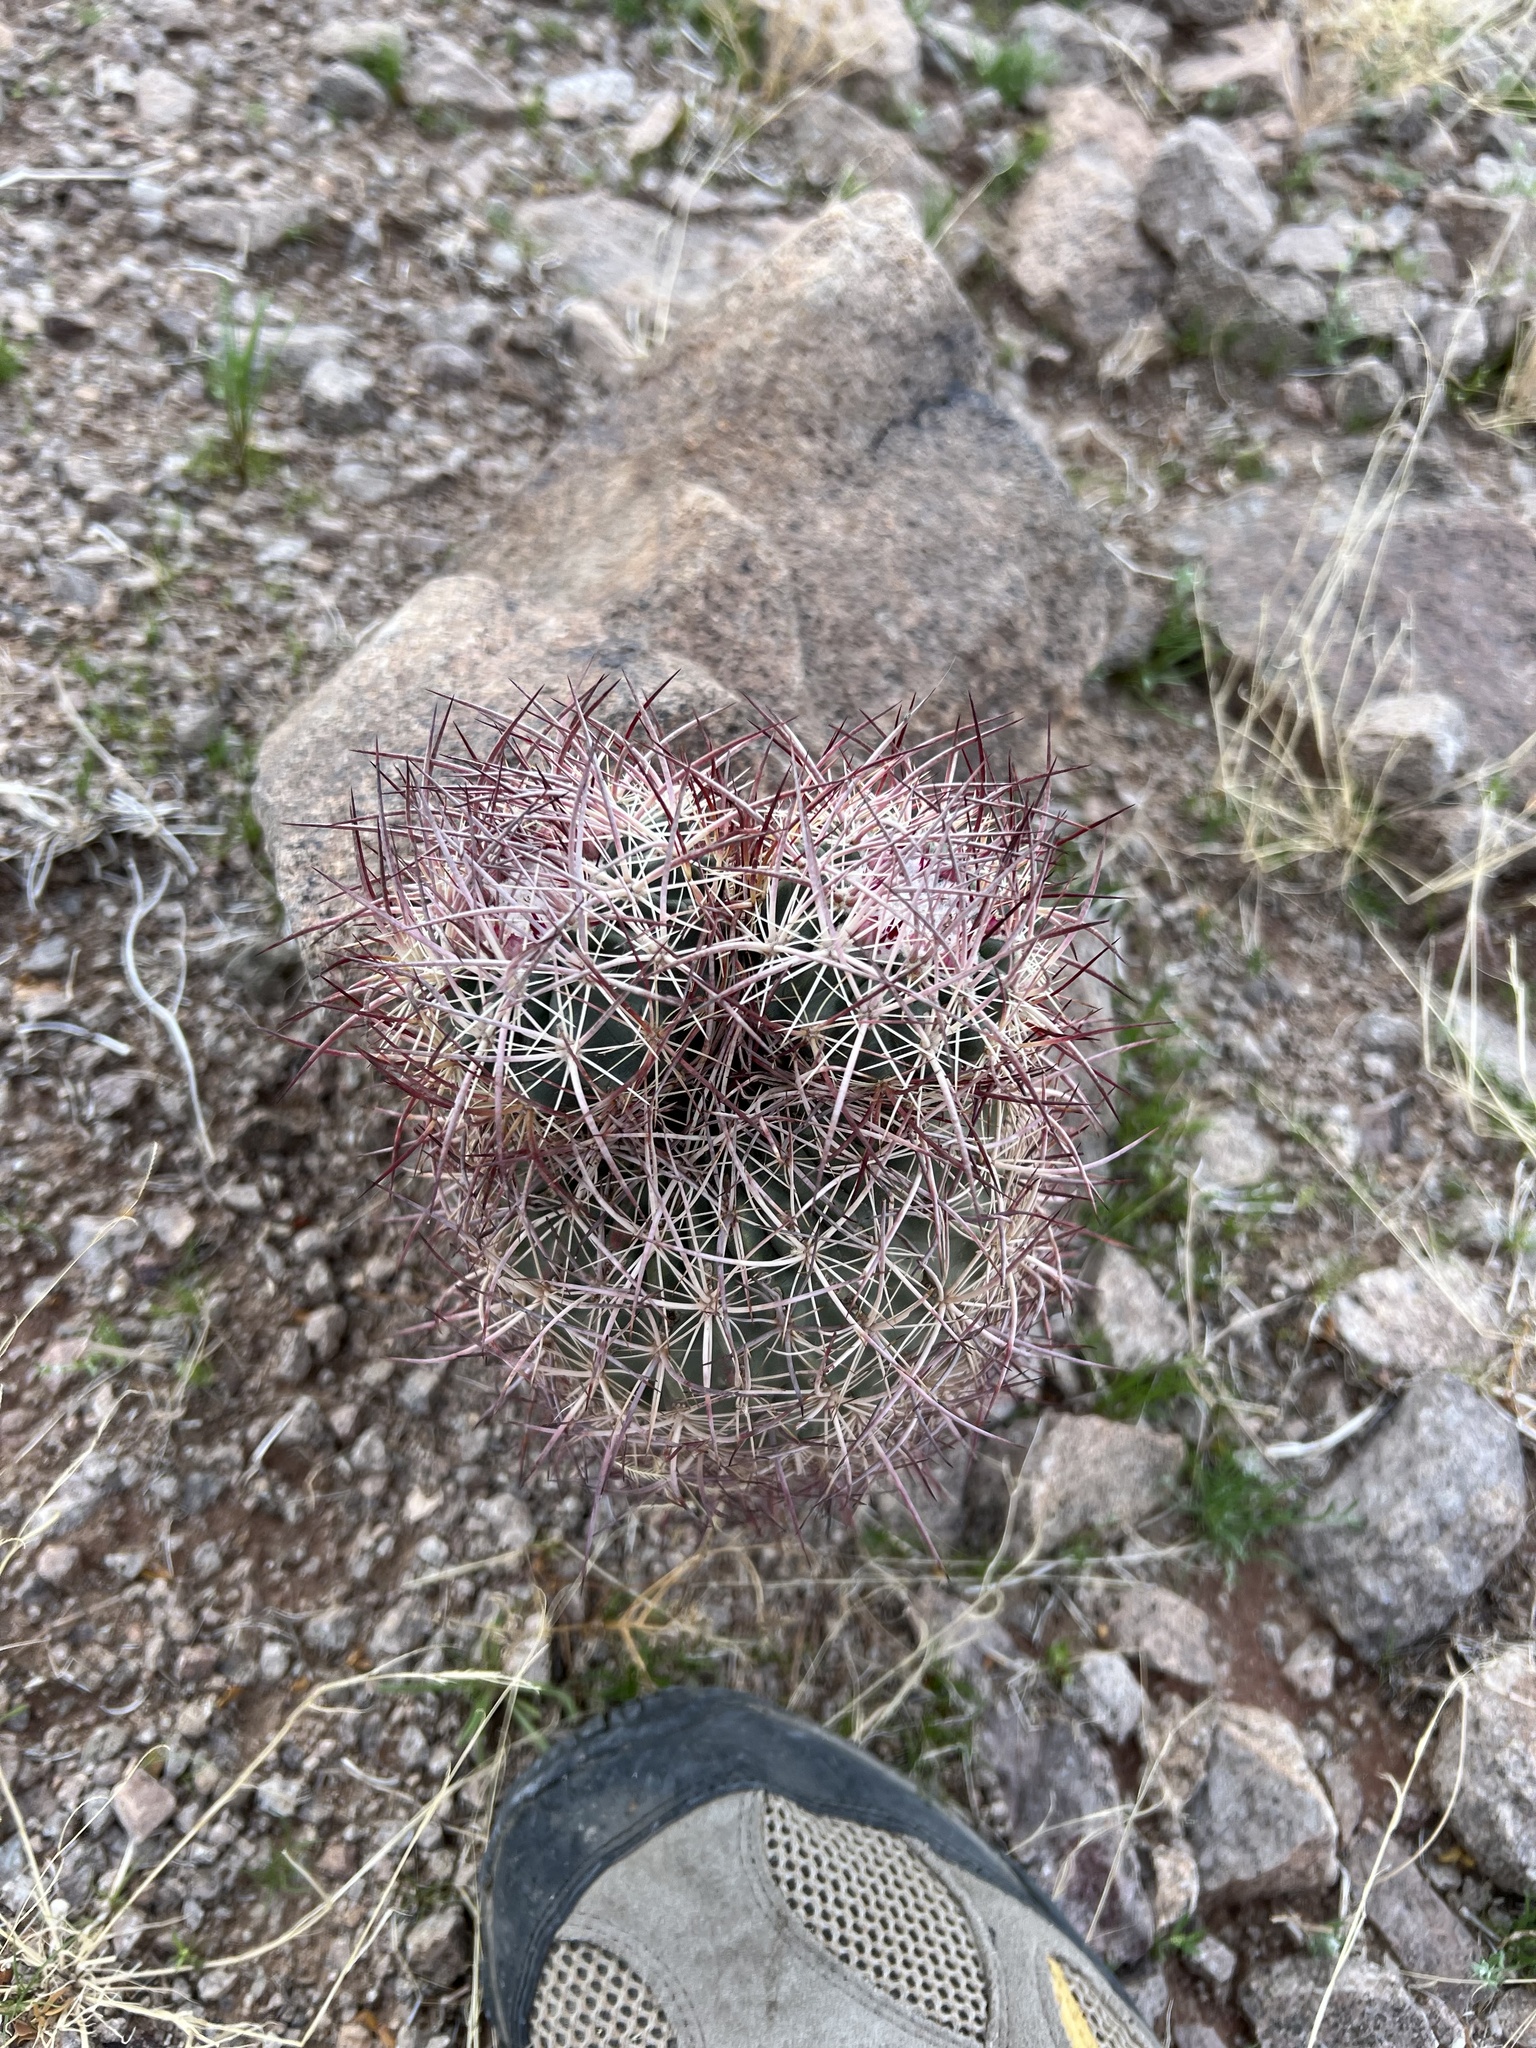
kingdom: Plantae
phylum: Tracheophyta
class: Magnoliopsida
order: Caryophyllales
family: Cactaceae
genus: Sclerocactus
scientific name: Sclerocactus johnsonii
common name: Eight-spine fishhook cactus
